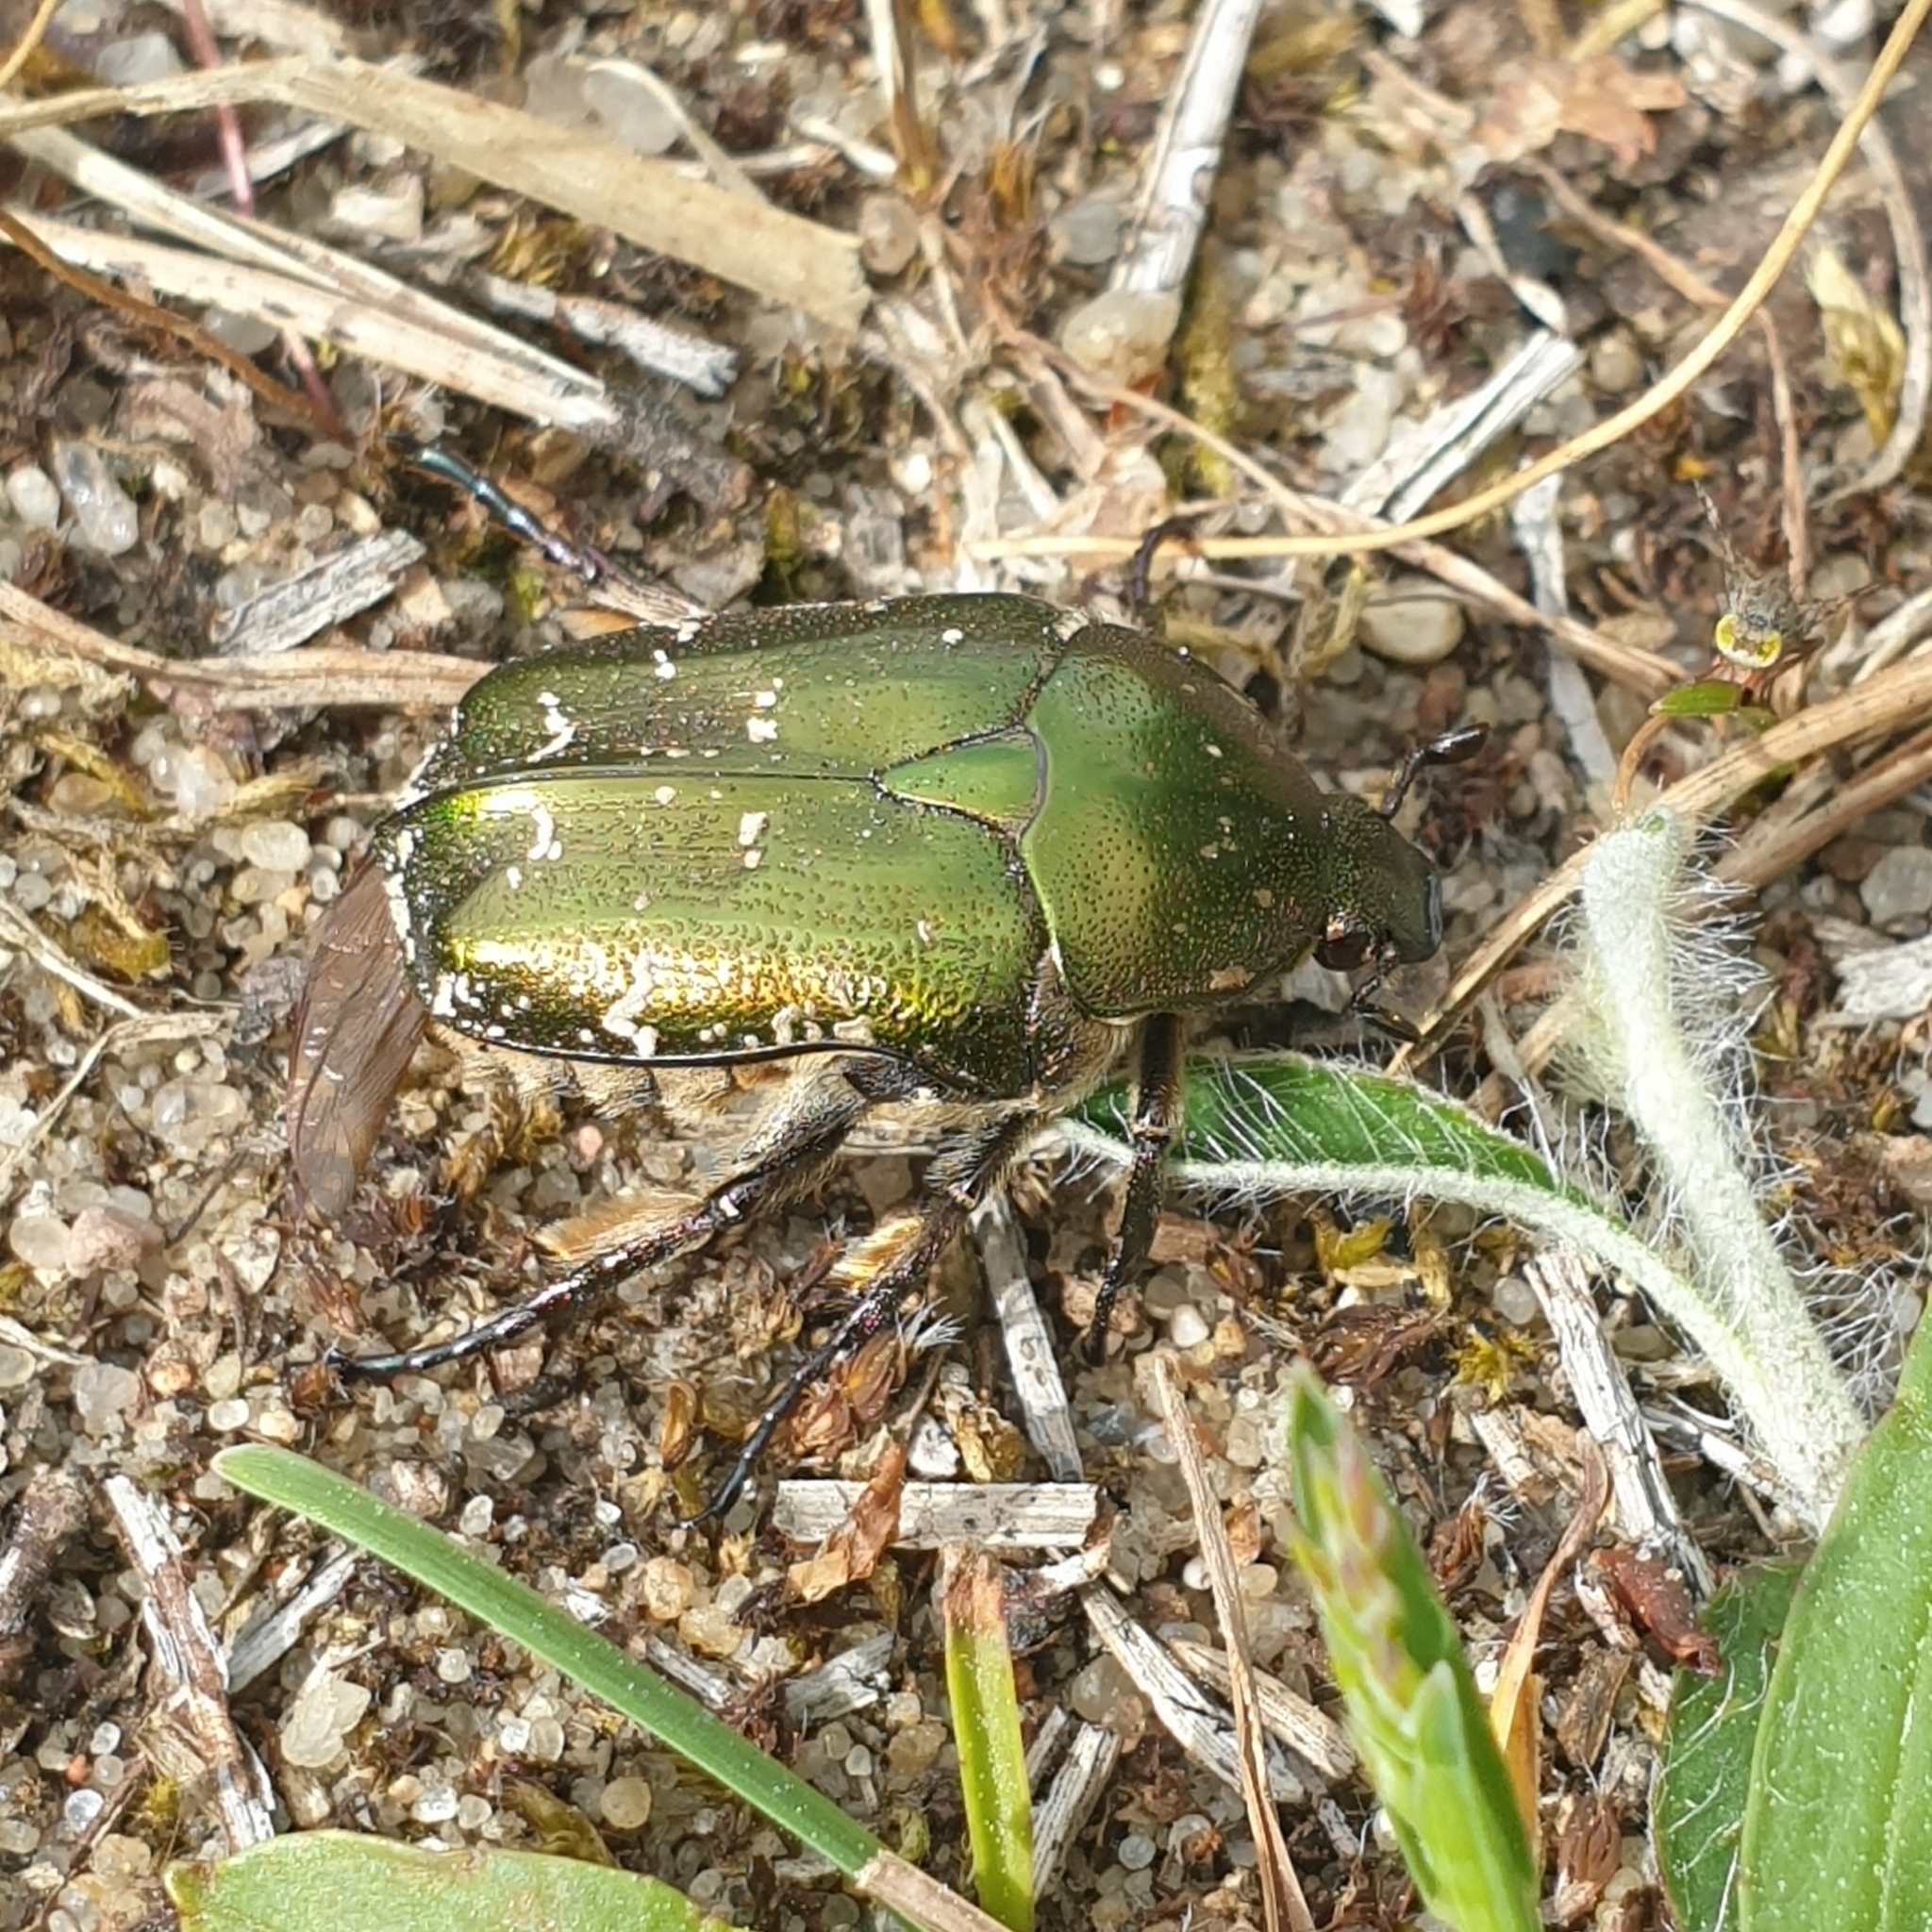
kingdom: Animalia
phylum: Arthropoda
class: Insecta
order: Coleoptera
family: Scarabaeidae
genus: Protaetia
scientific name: Protaetia cuprea
